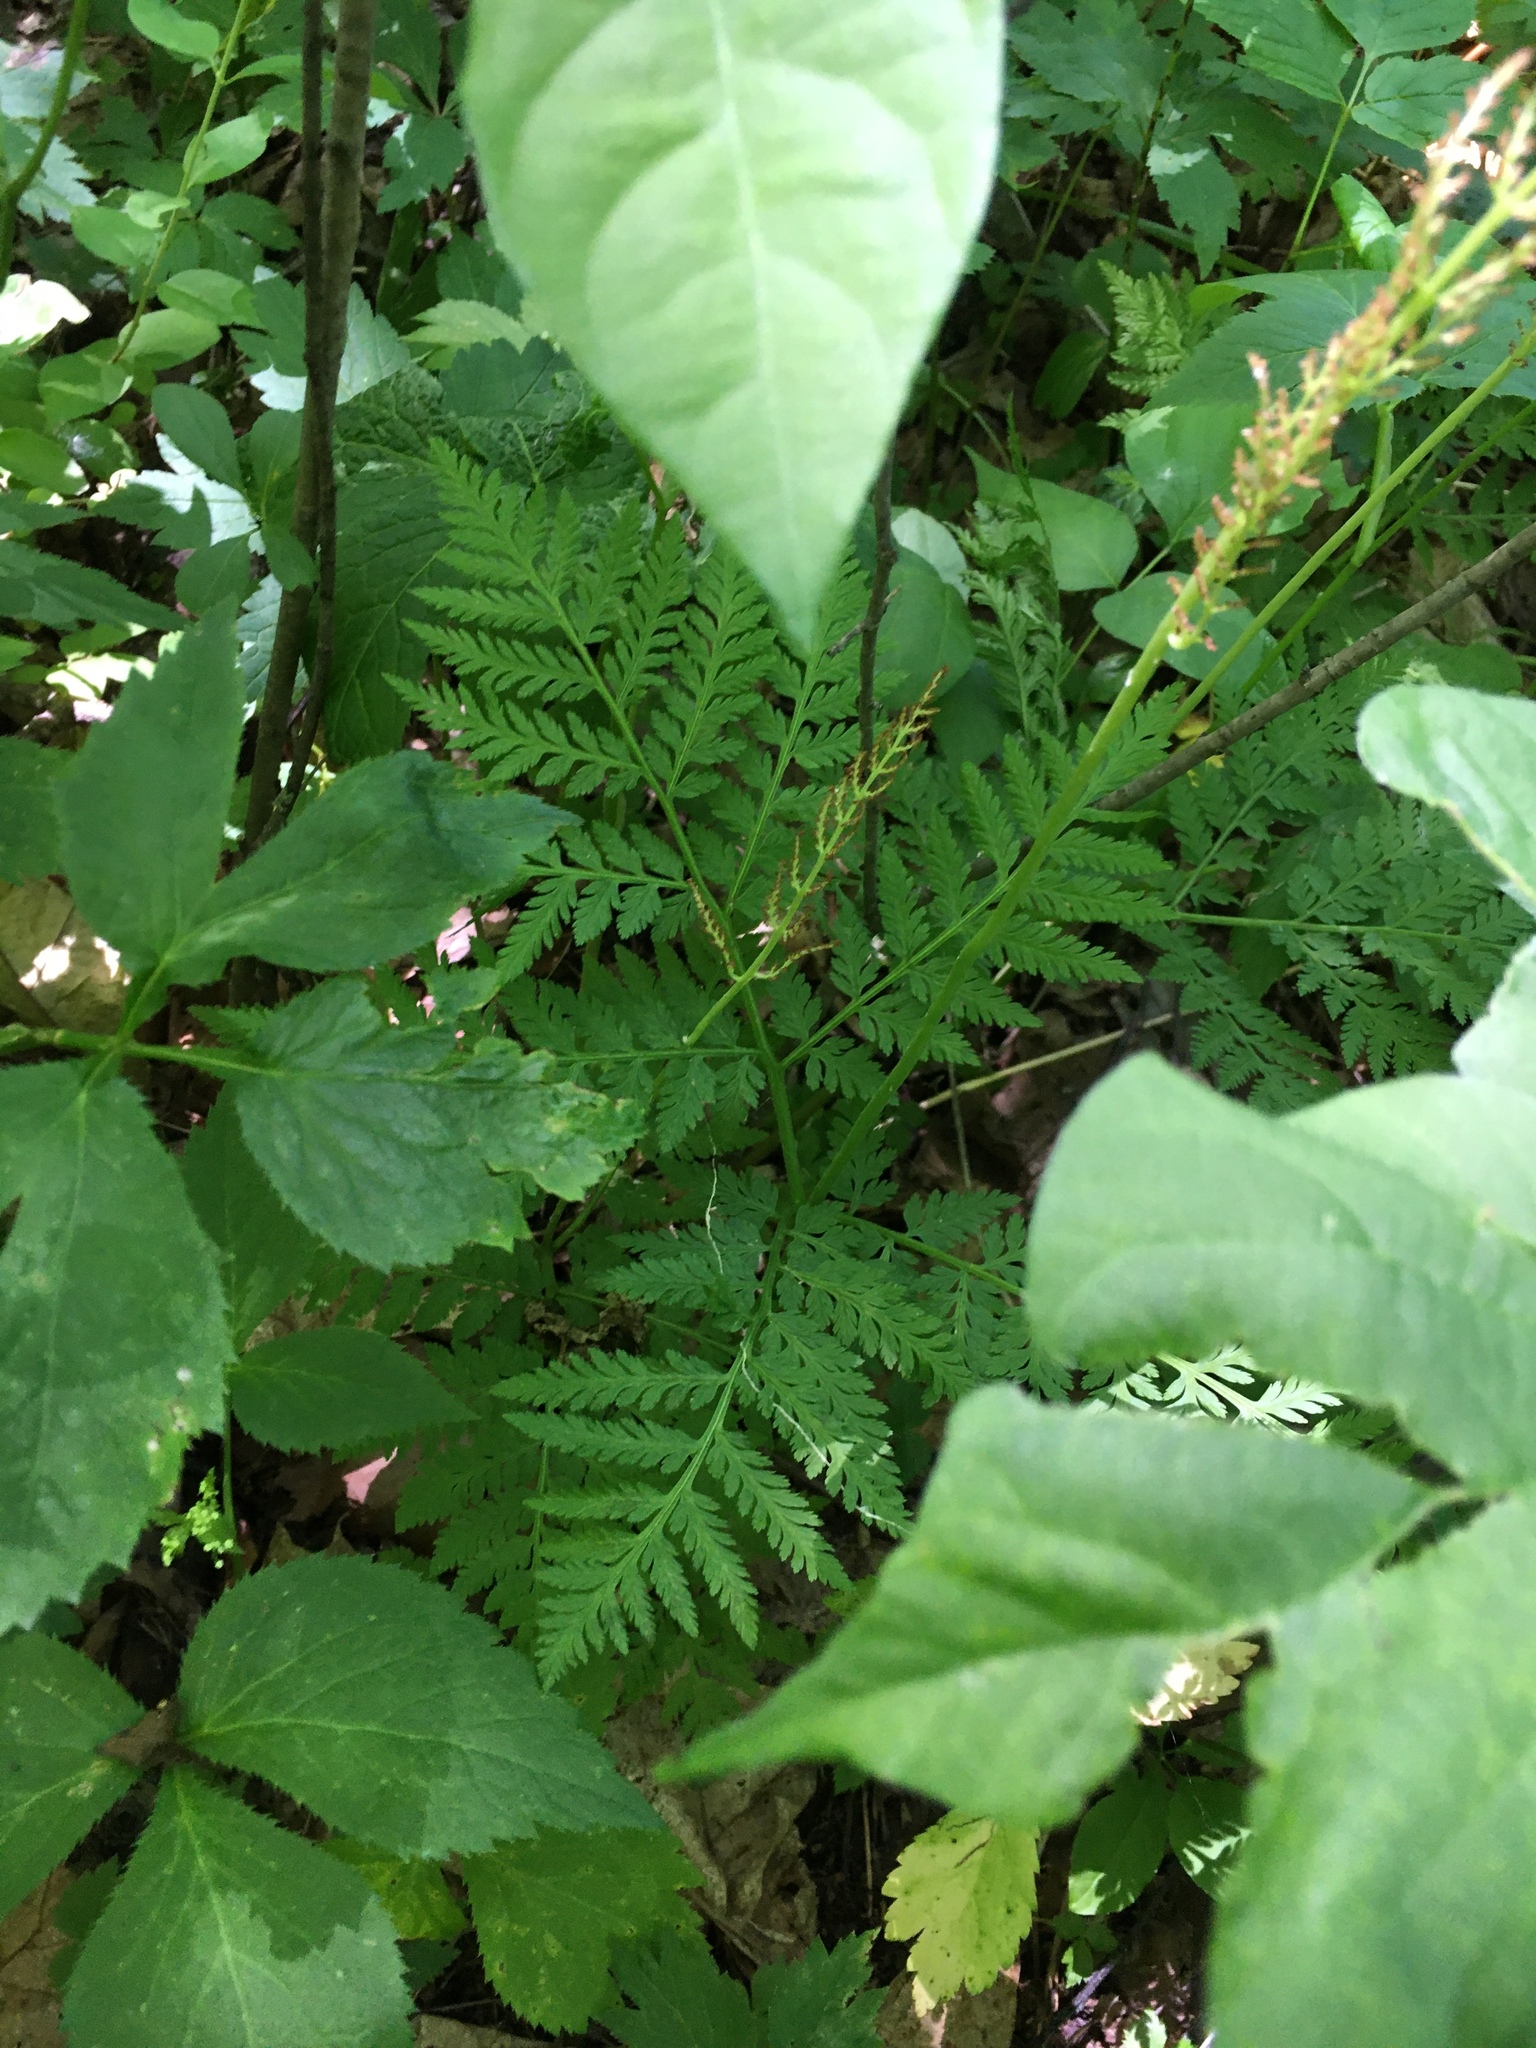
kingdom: Plantae
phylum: Tracheophyta
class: Polypodiopsida
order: Ophioglossales
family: Ophioglossaceae
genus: Botrypus
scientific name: Botrypus virginianus
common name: Common grapefern
